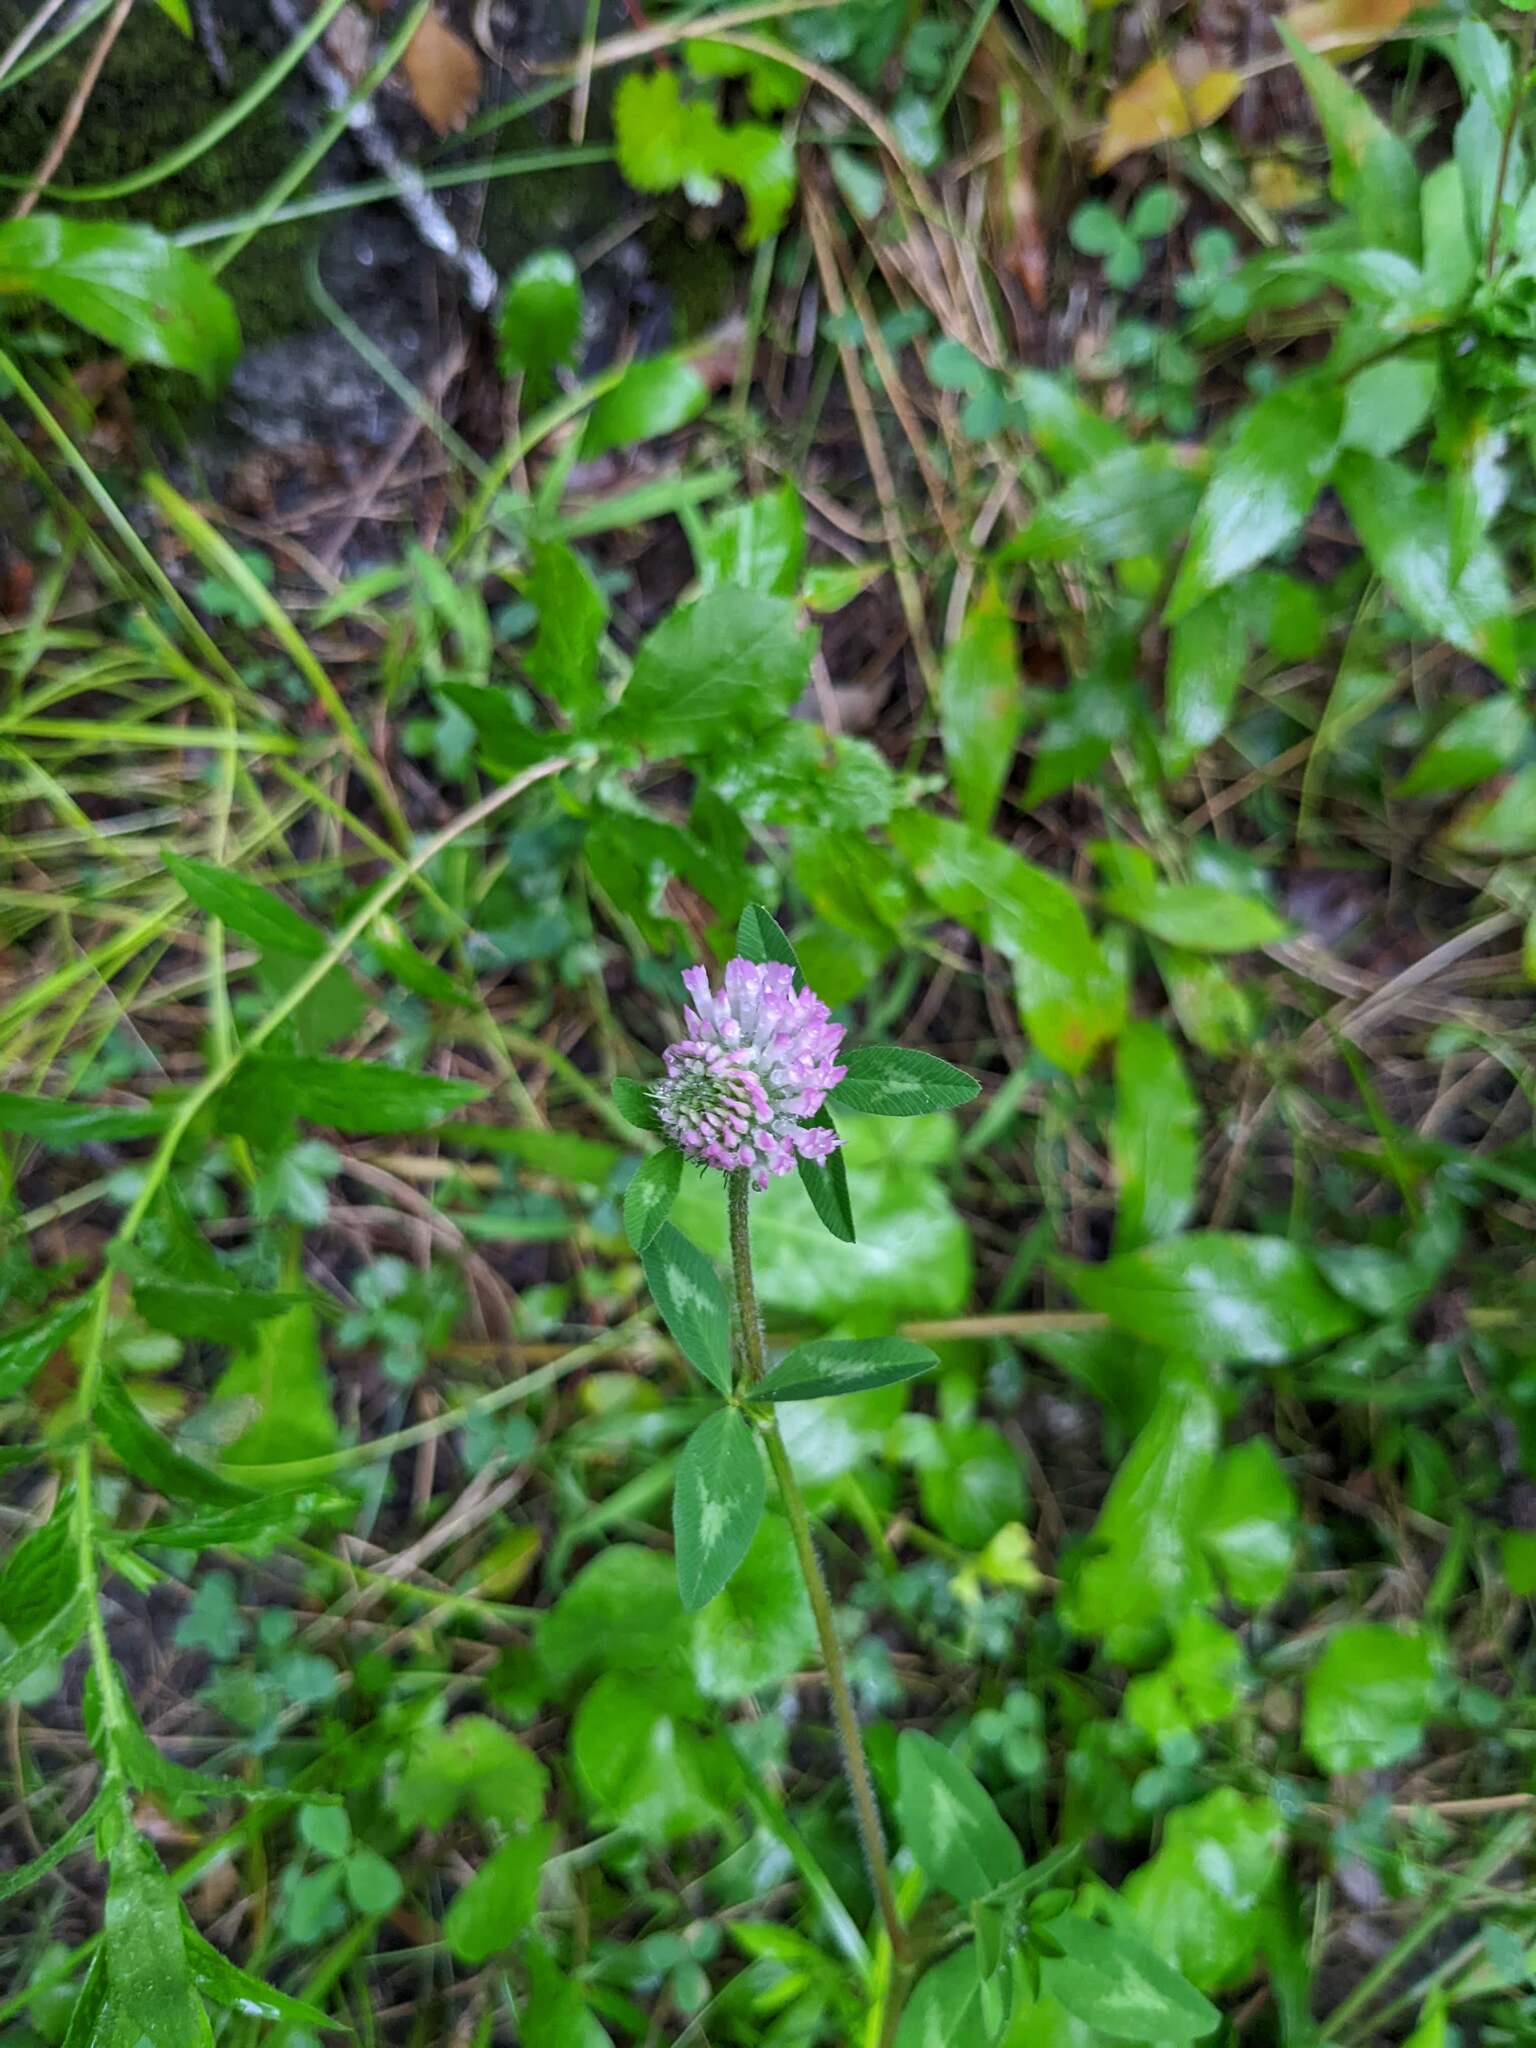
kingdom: Plantae
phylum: Tracheophyta
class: Magnoliopsida
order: Fabales
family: Fabaceae
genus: Trifolium
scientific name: Trifolium pratense
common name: Red clover
